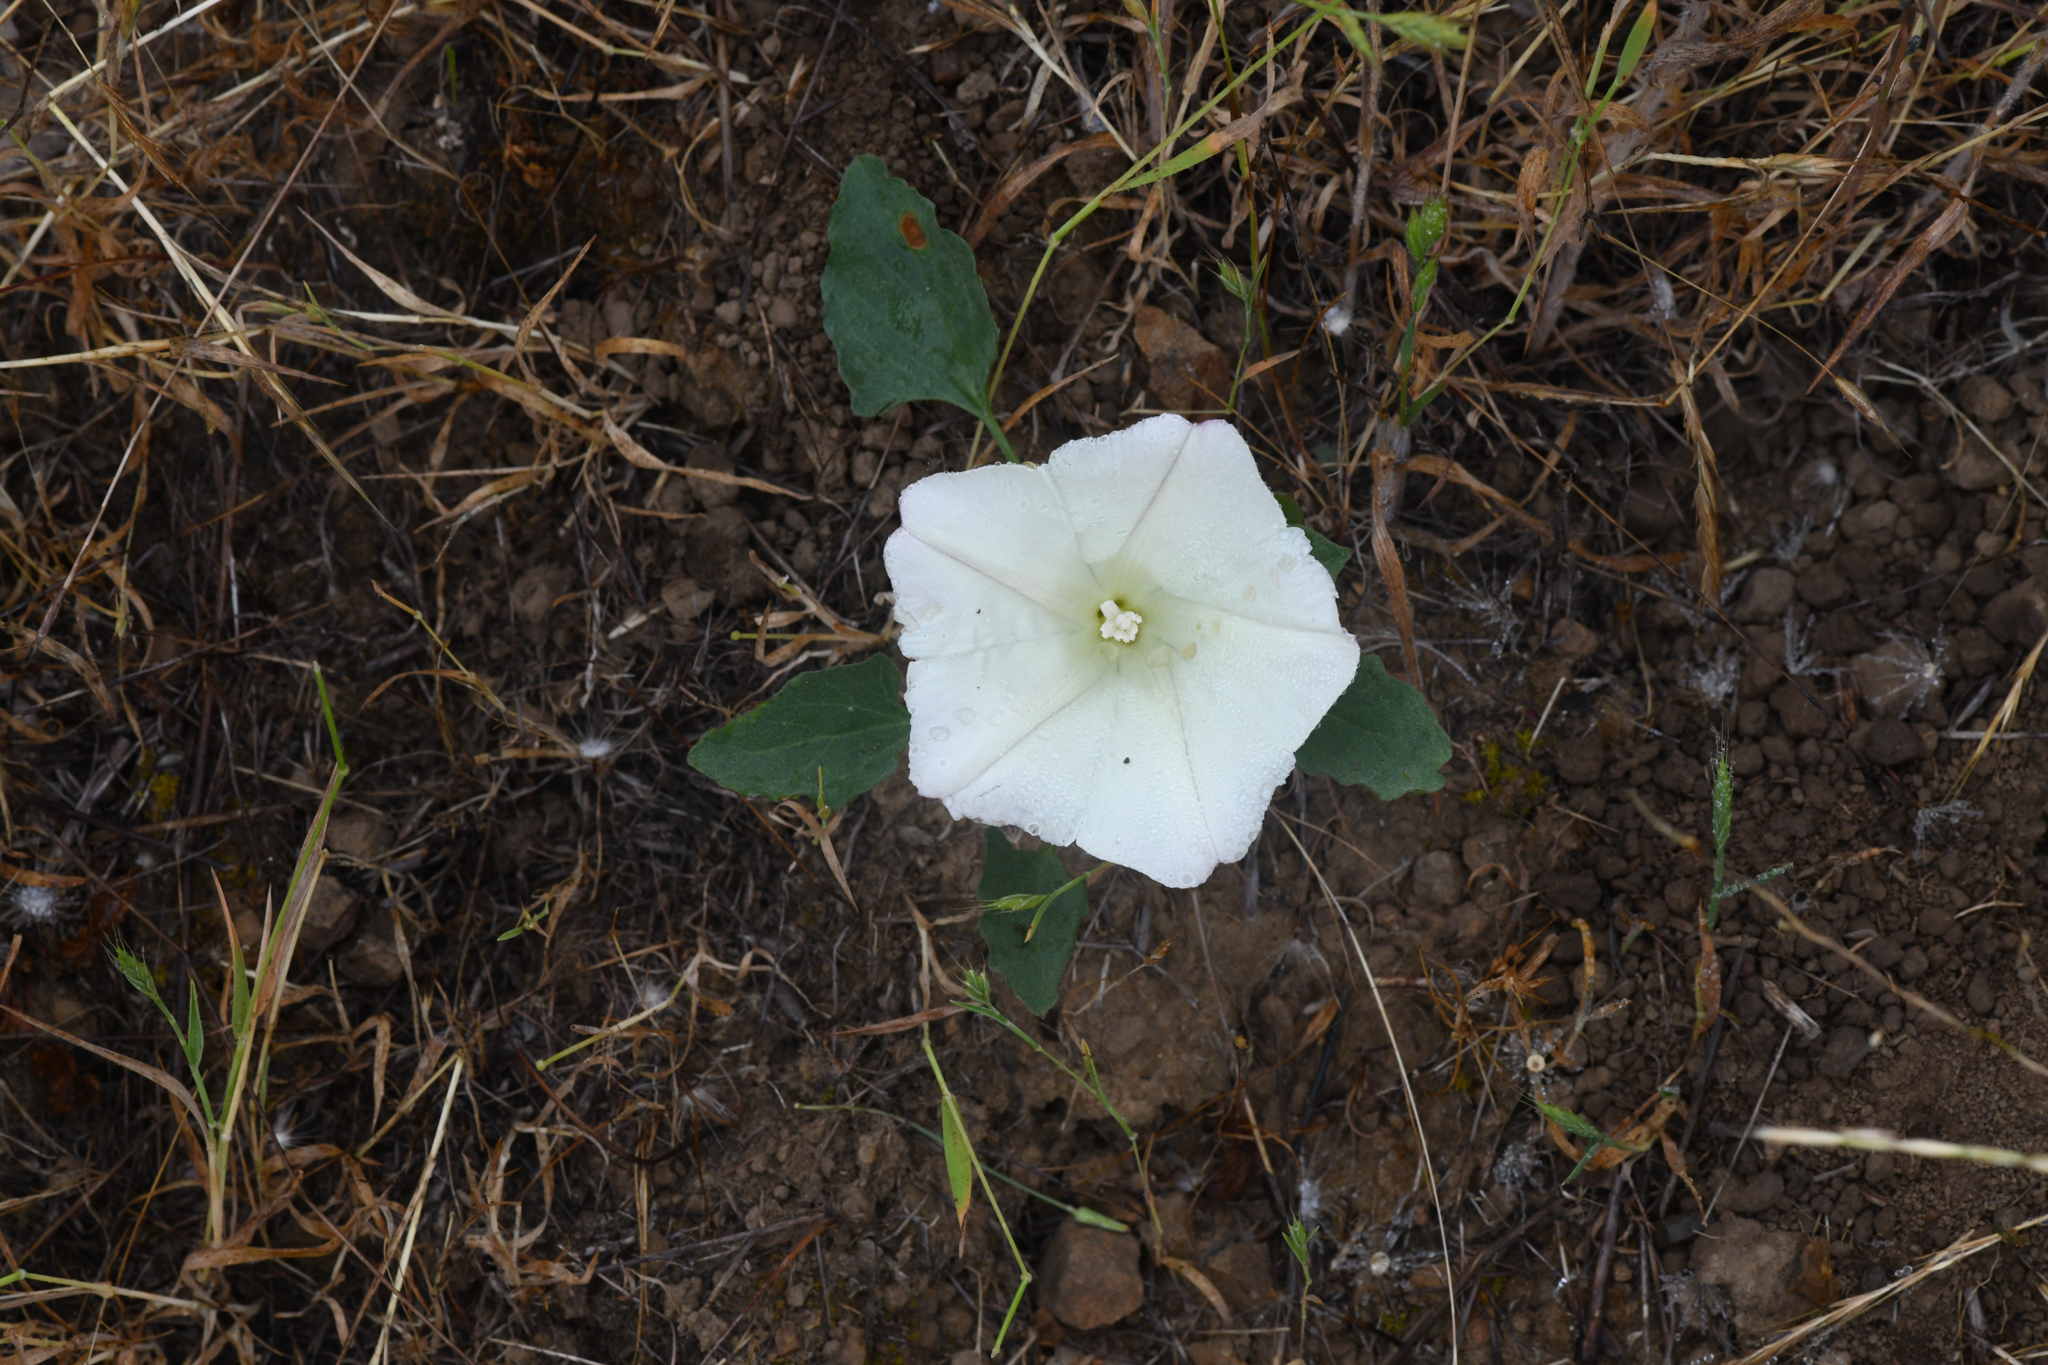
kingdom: Plantae
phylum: Tracheophyta
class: Magnoliopsida
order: Solanales
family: Convolvulaceae
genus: Calystegia
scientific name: Calystegia subacaulis
